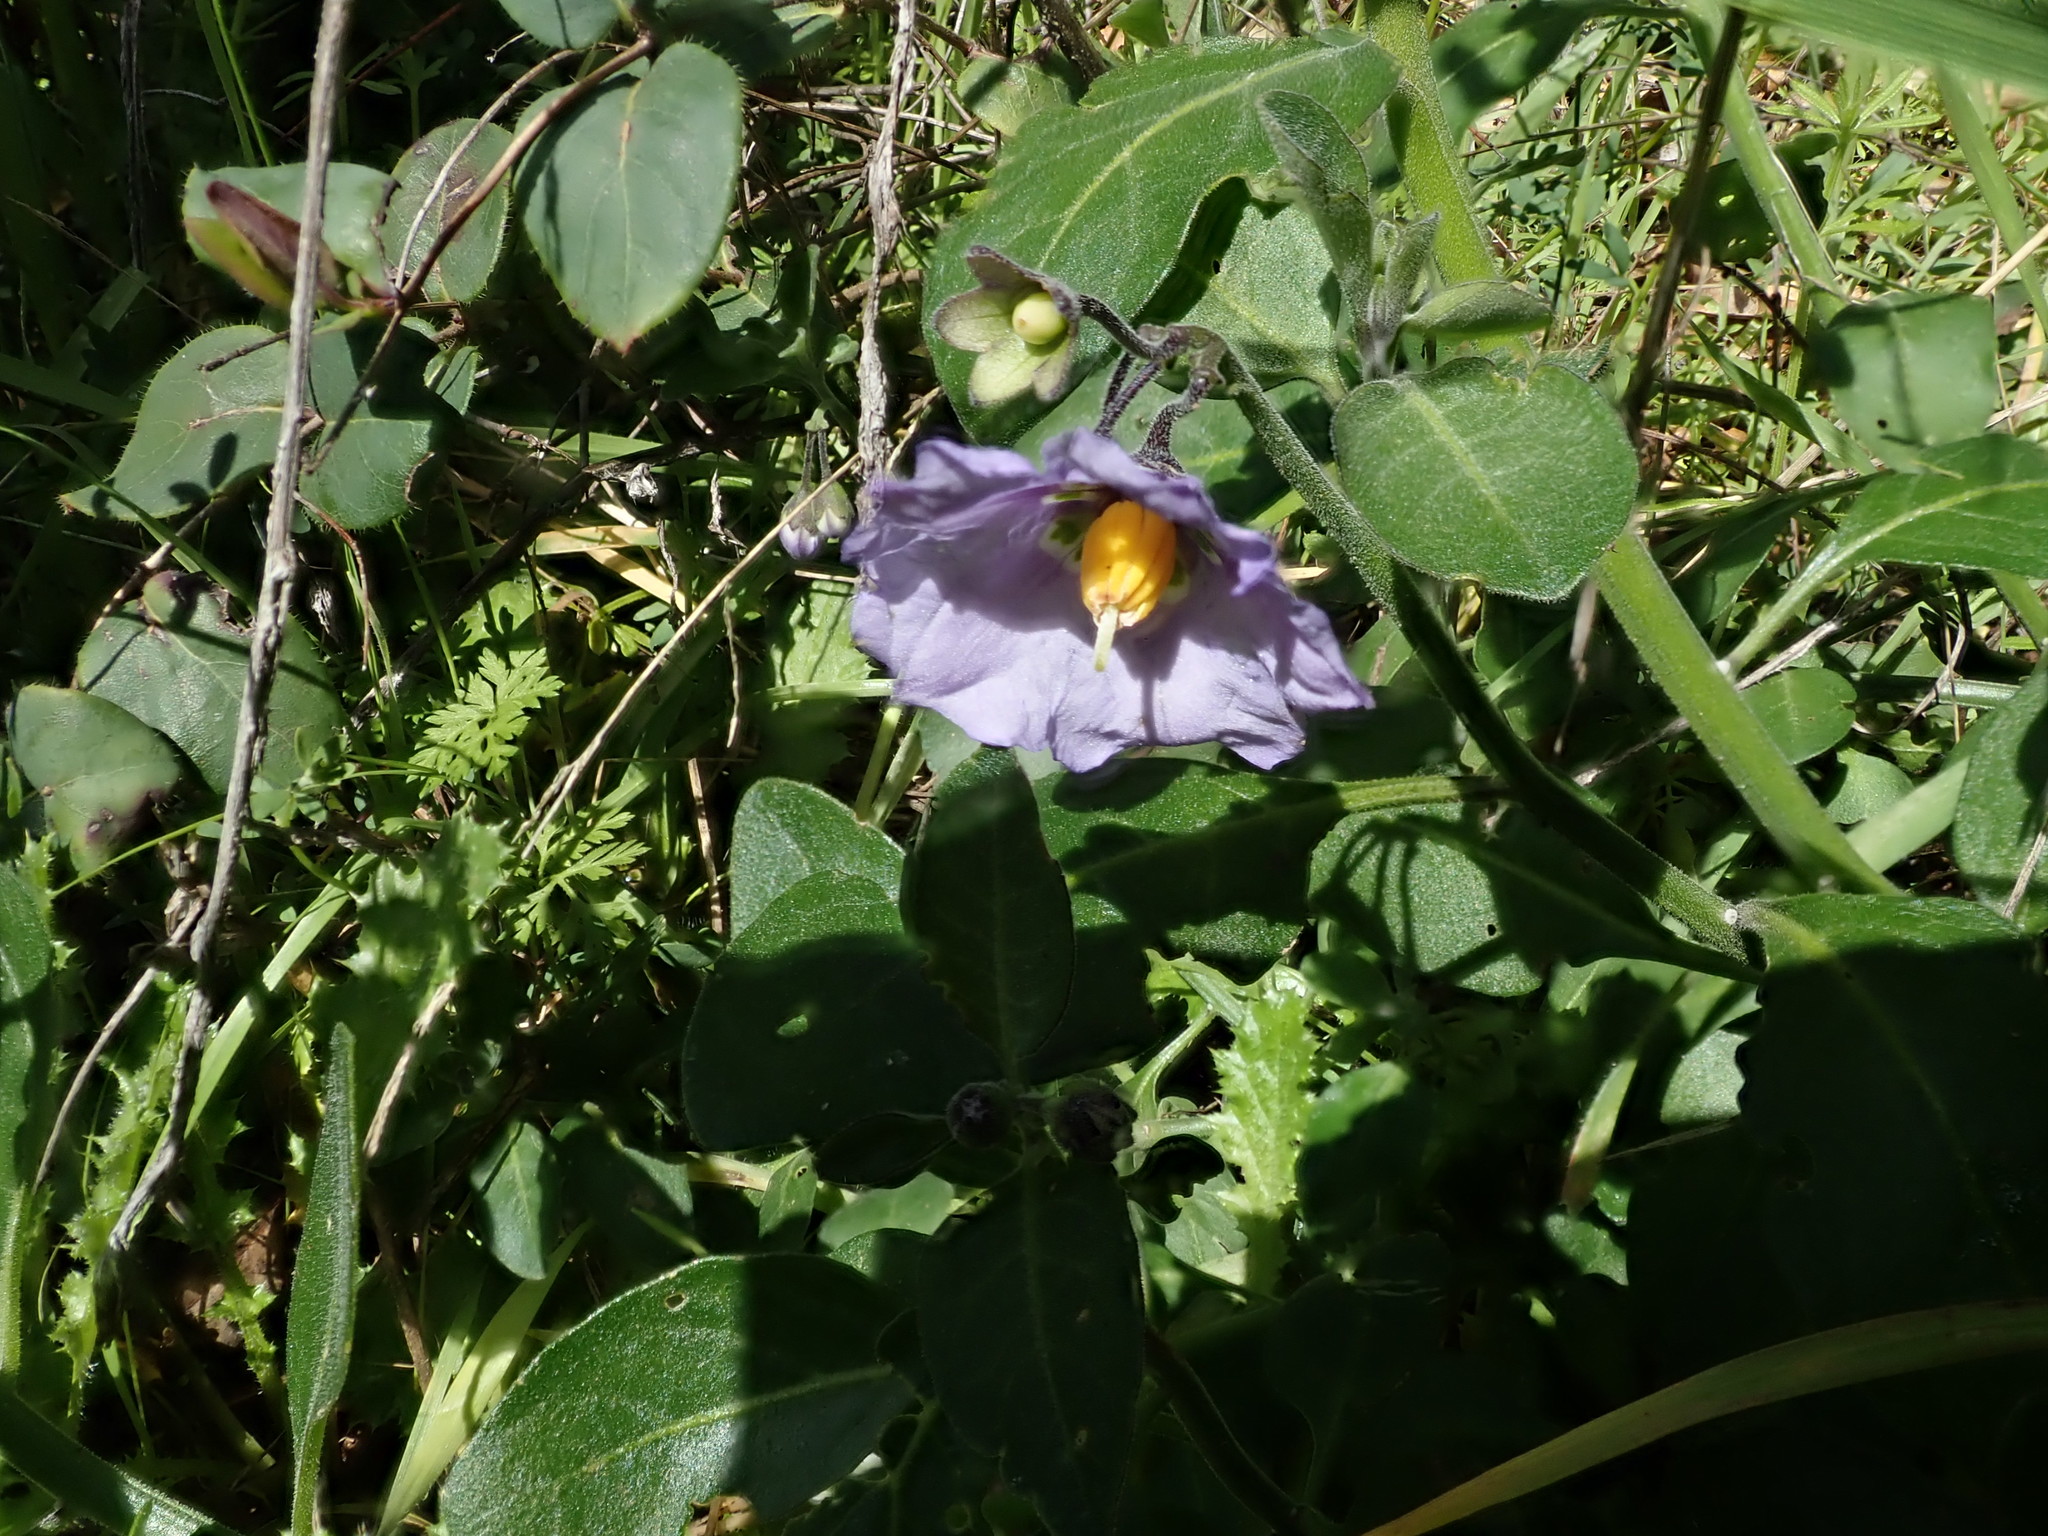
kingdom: Plantae
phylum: Tracheophyta
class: Magnoliopsida
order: Solanales
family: Solanaceae
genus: Solanum
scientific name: Solanum umbelliferum
